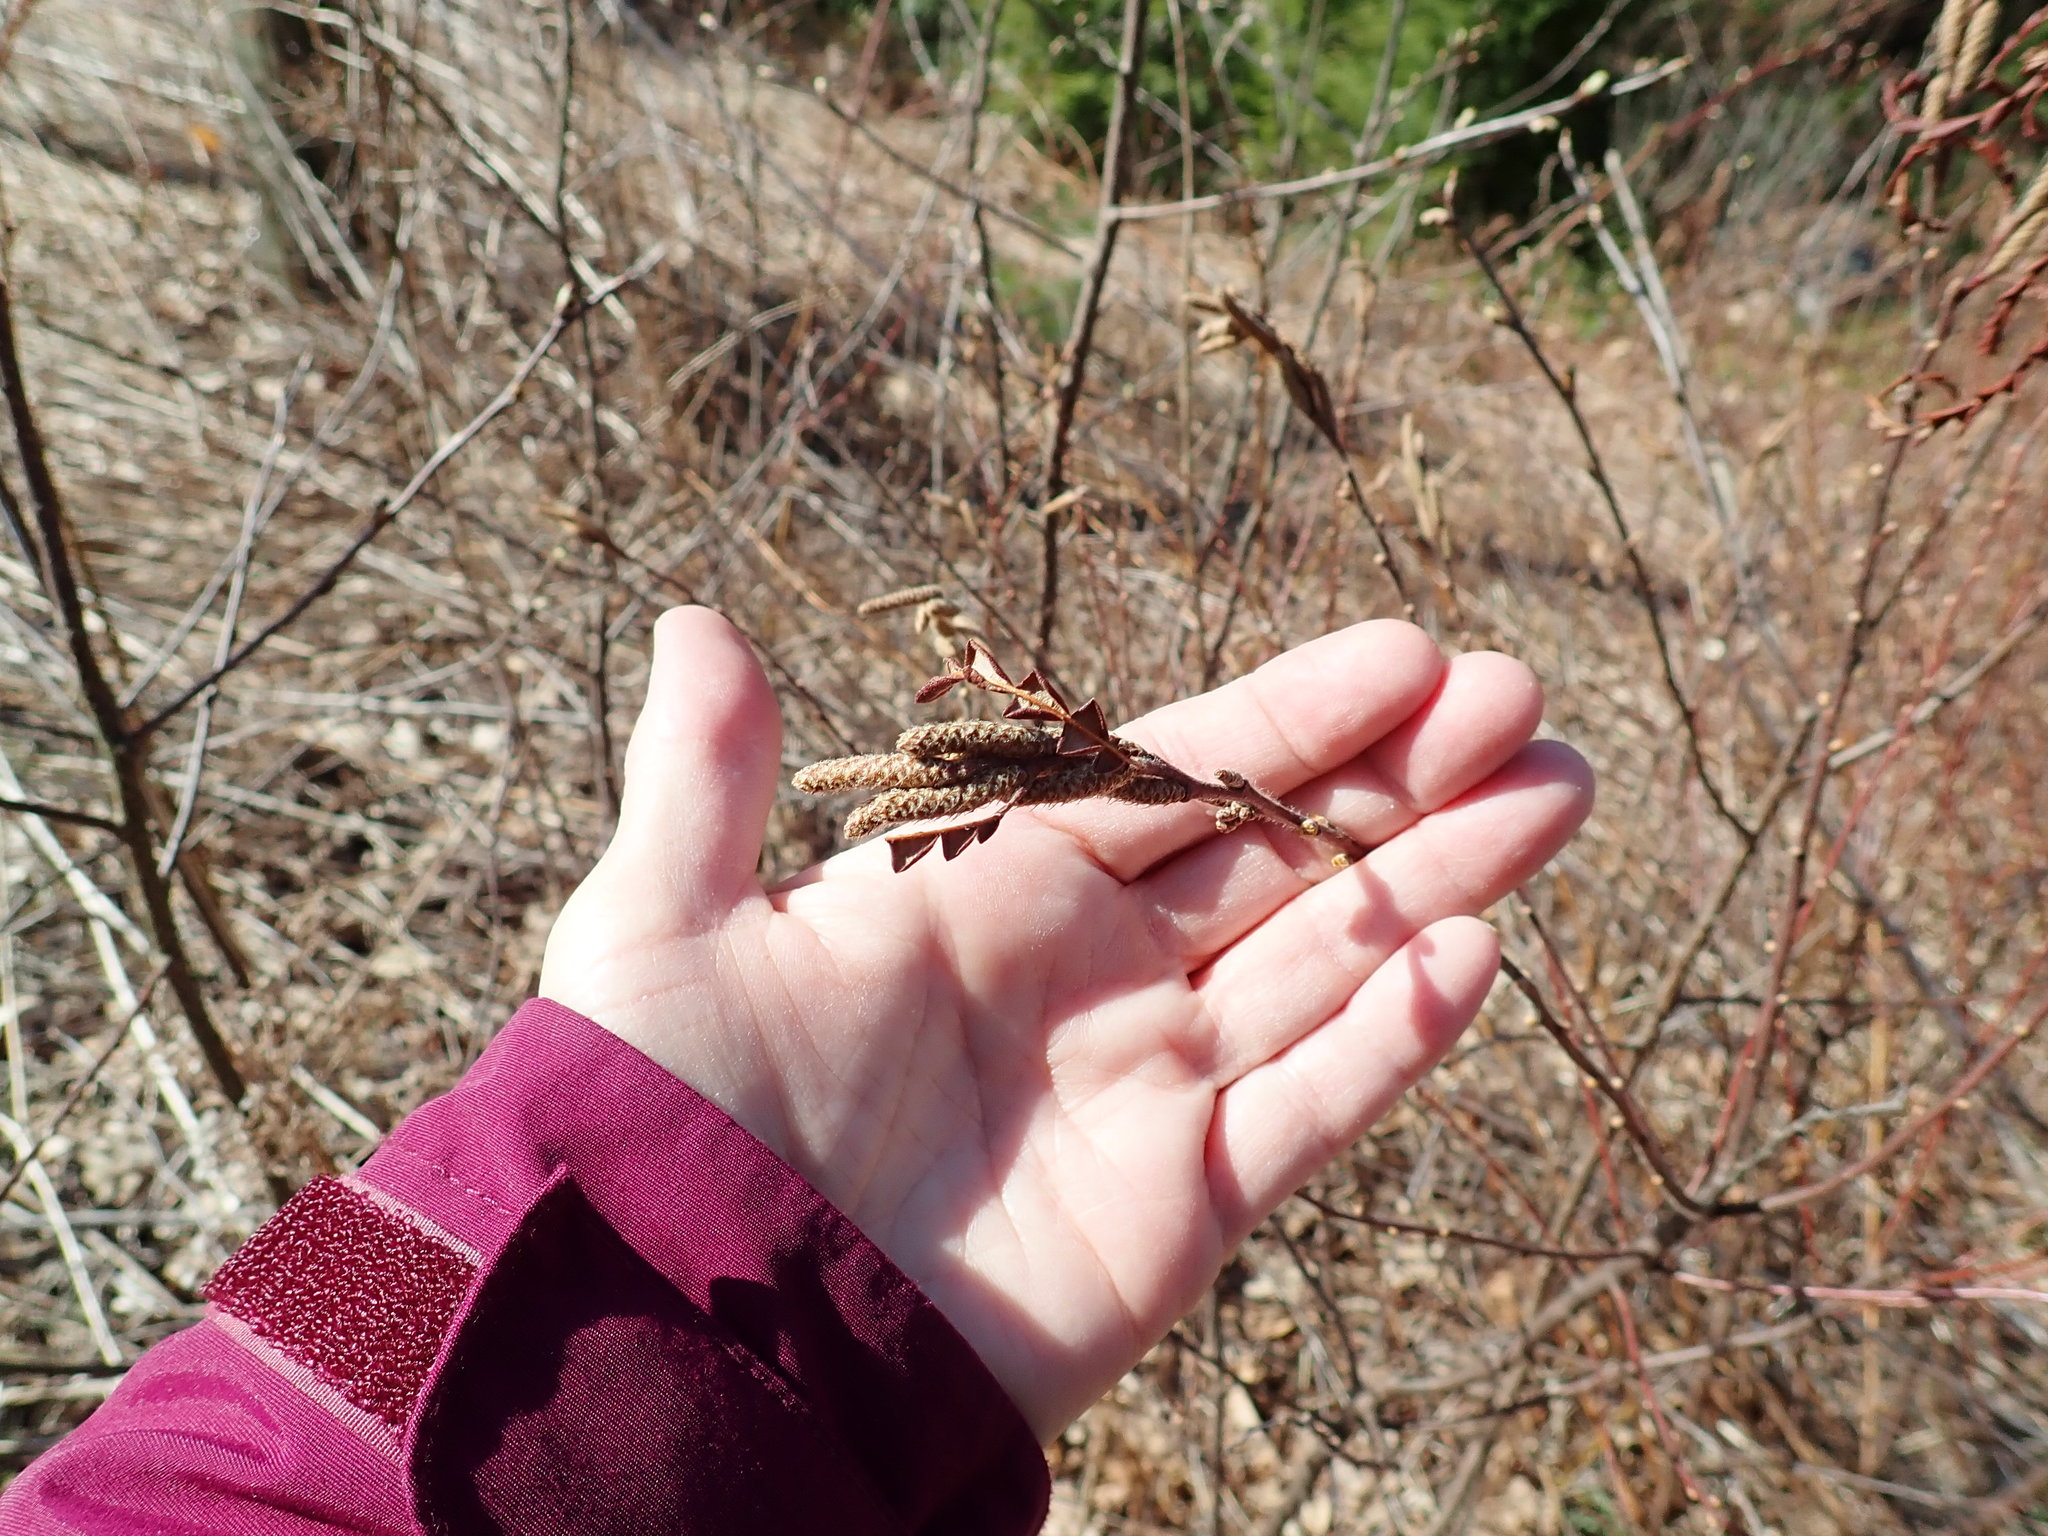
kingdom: Plantae
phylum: Tracheophyta
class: Magnoliopsida
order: Fagales
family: Myricaceae
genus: Comptonia
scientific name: Comptonia peregrina
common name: Sweet-fern
